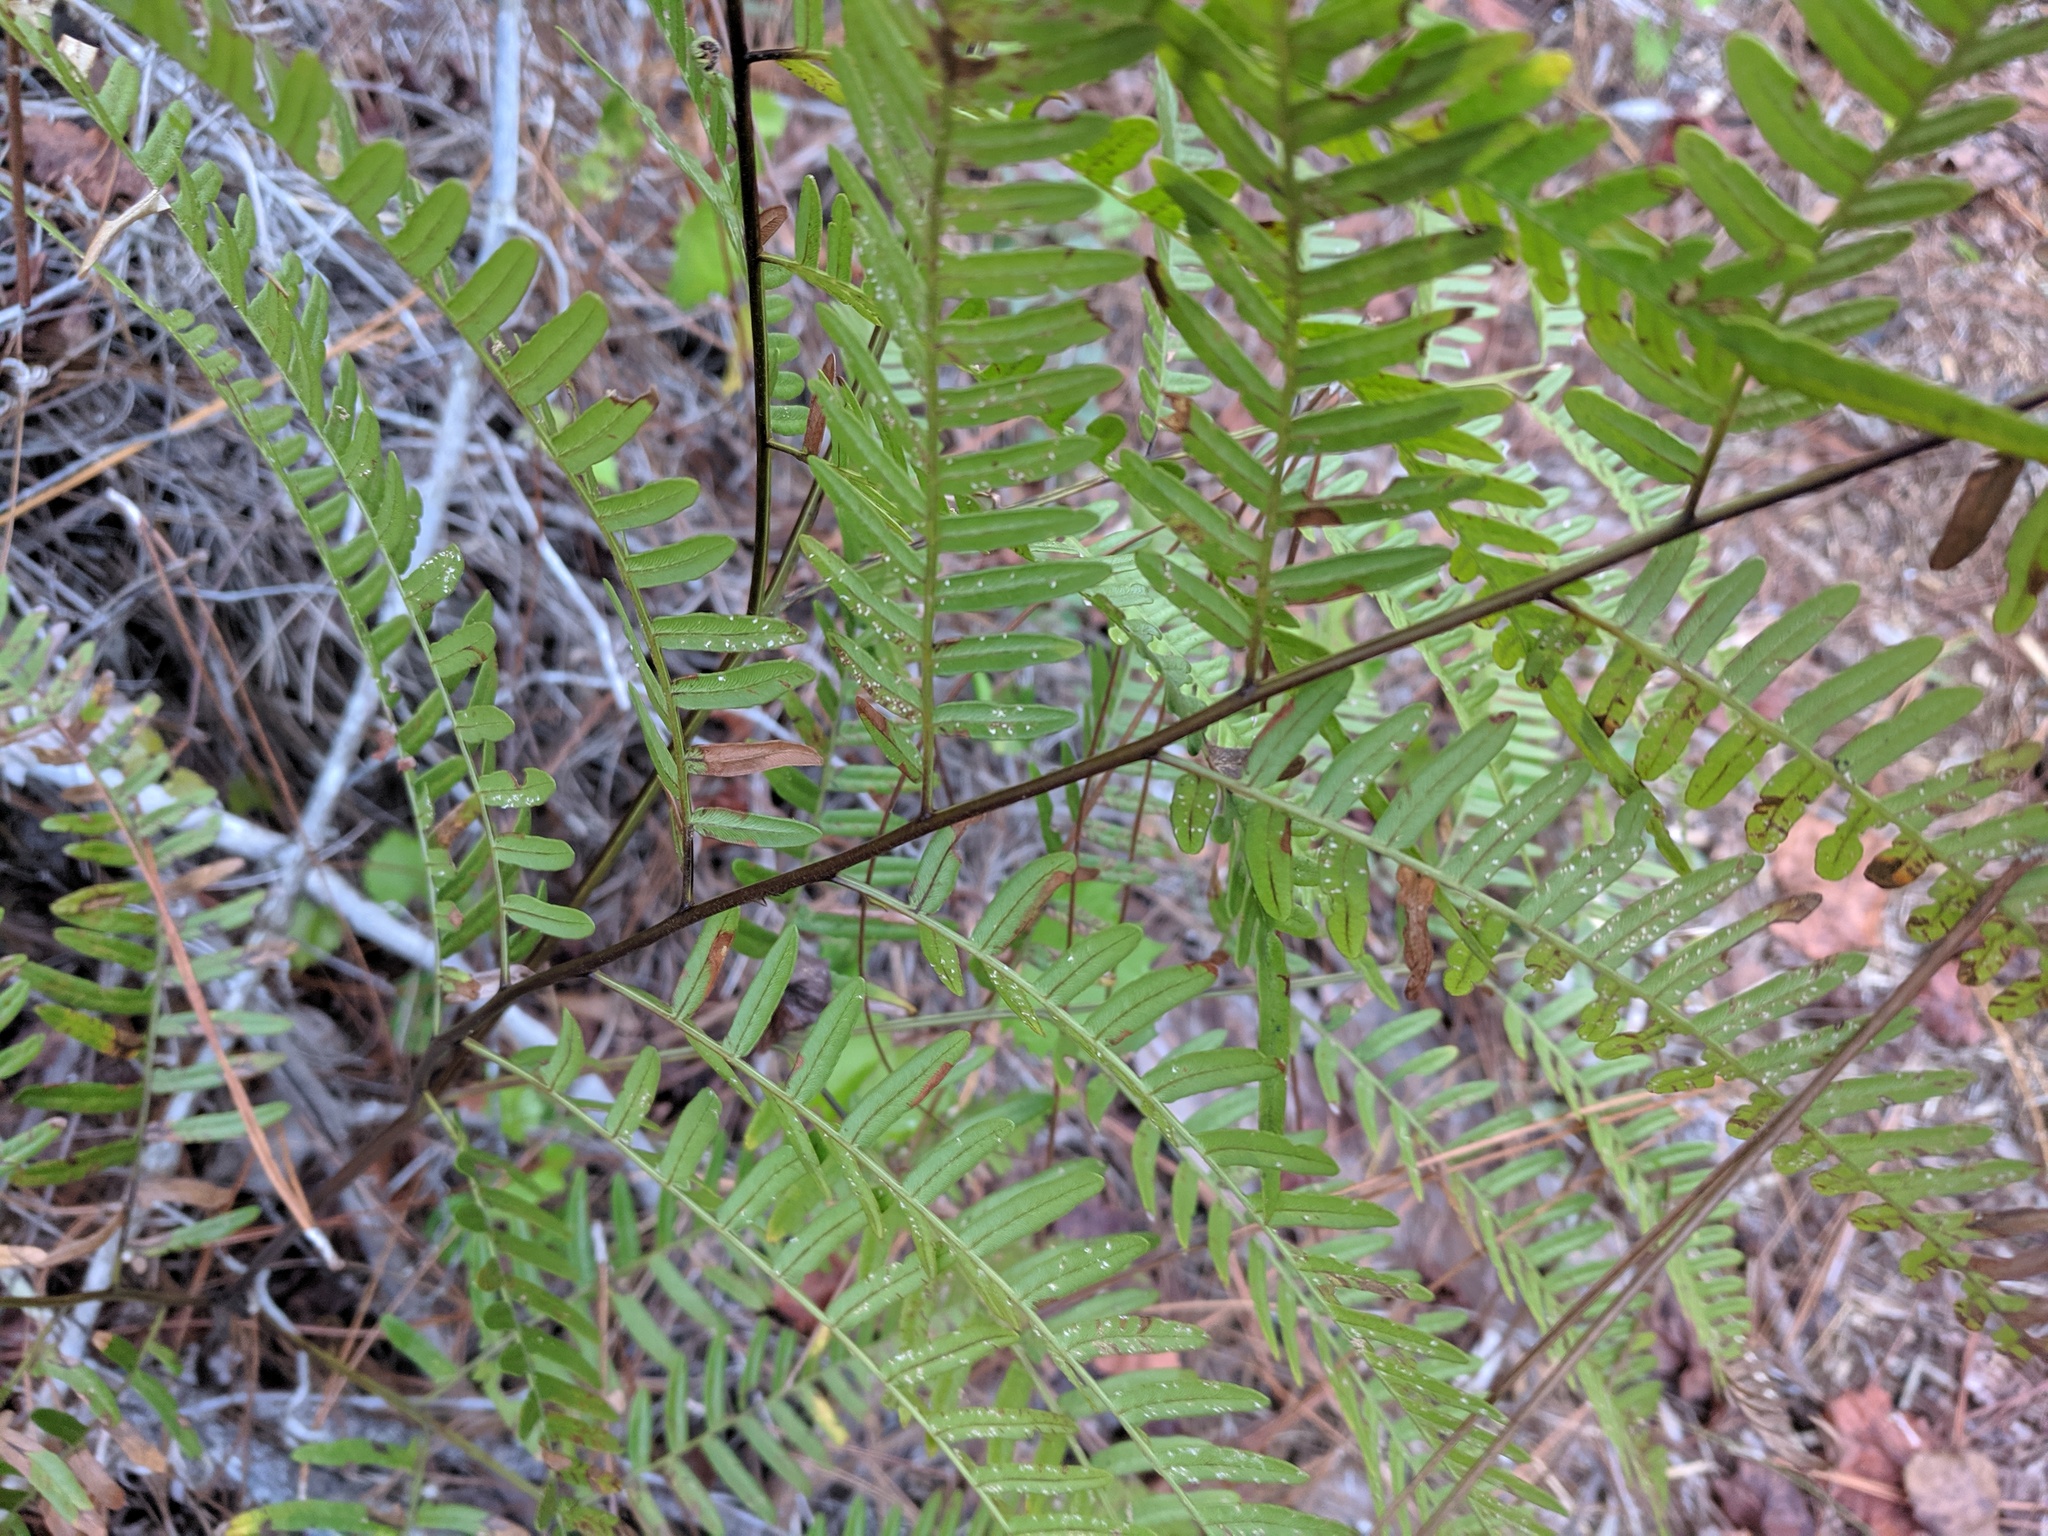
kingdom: Plantae
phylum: Tracheophyta
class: Polypodiopsida
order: Polypodiales
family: Dennstaedtiaceae
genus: Pteridium
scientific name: Pteridium aquilinum
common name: Bracken
